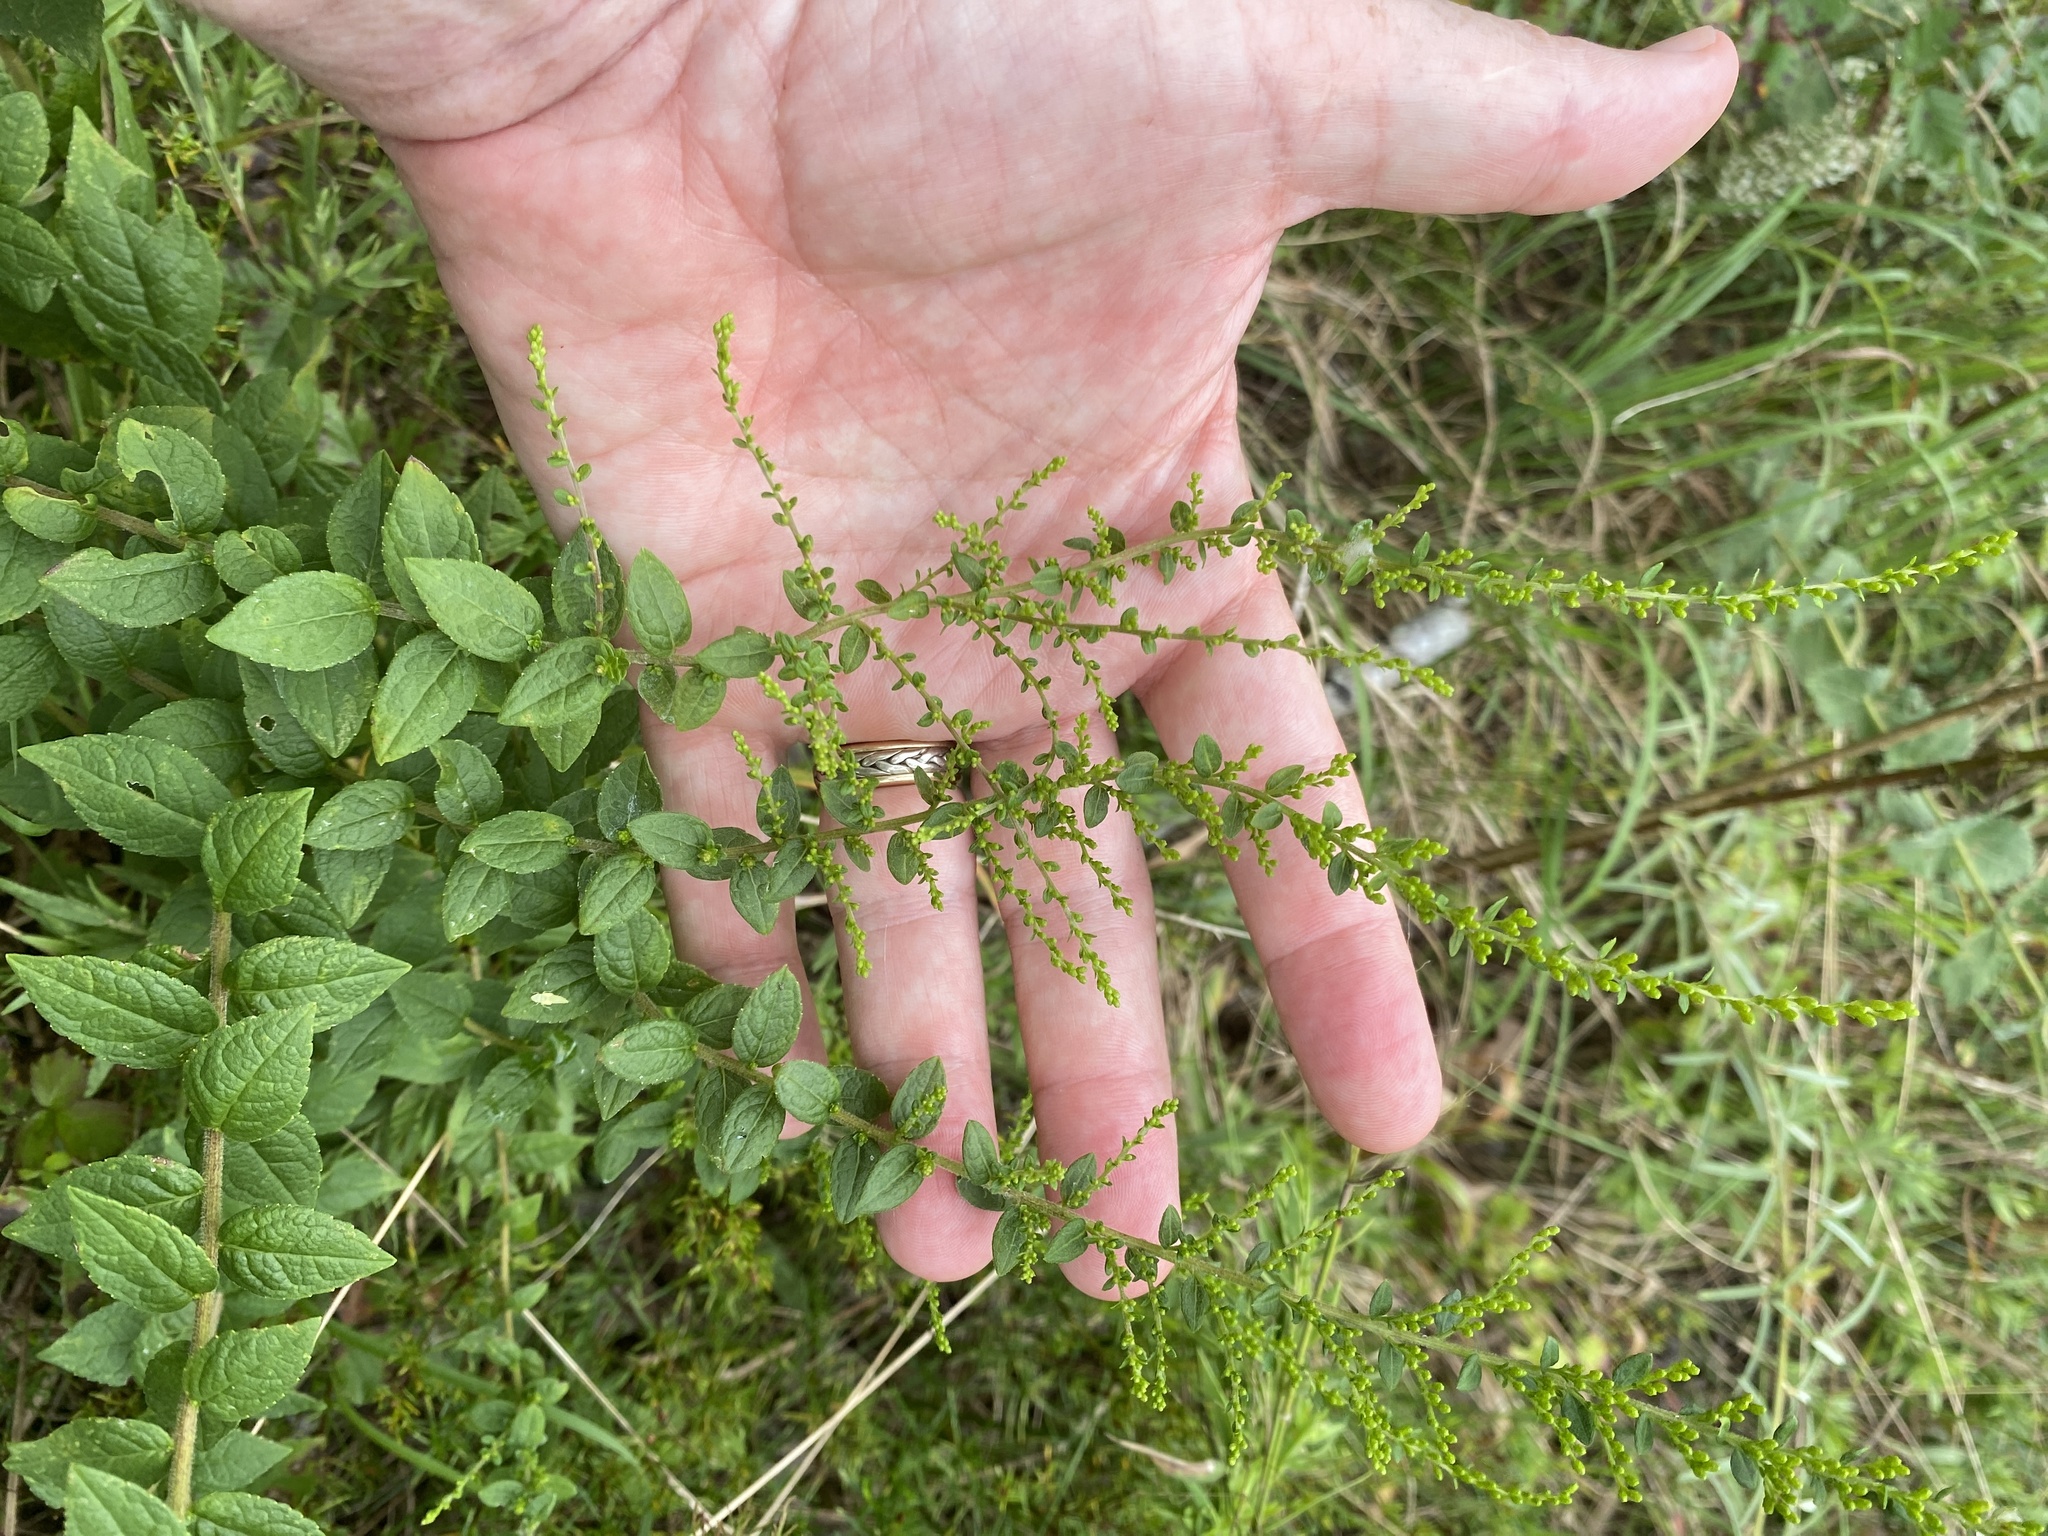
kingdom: Plantae
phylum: Tracheophyta
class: Magnoliopsida
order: Asterales
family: Asteraceae
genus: Solidago
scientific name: Solidago rugosa
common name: Rough-stemmed goldenrod
